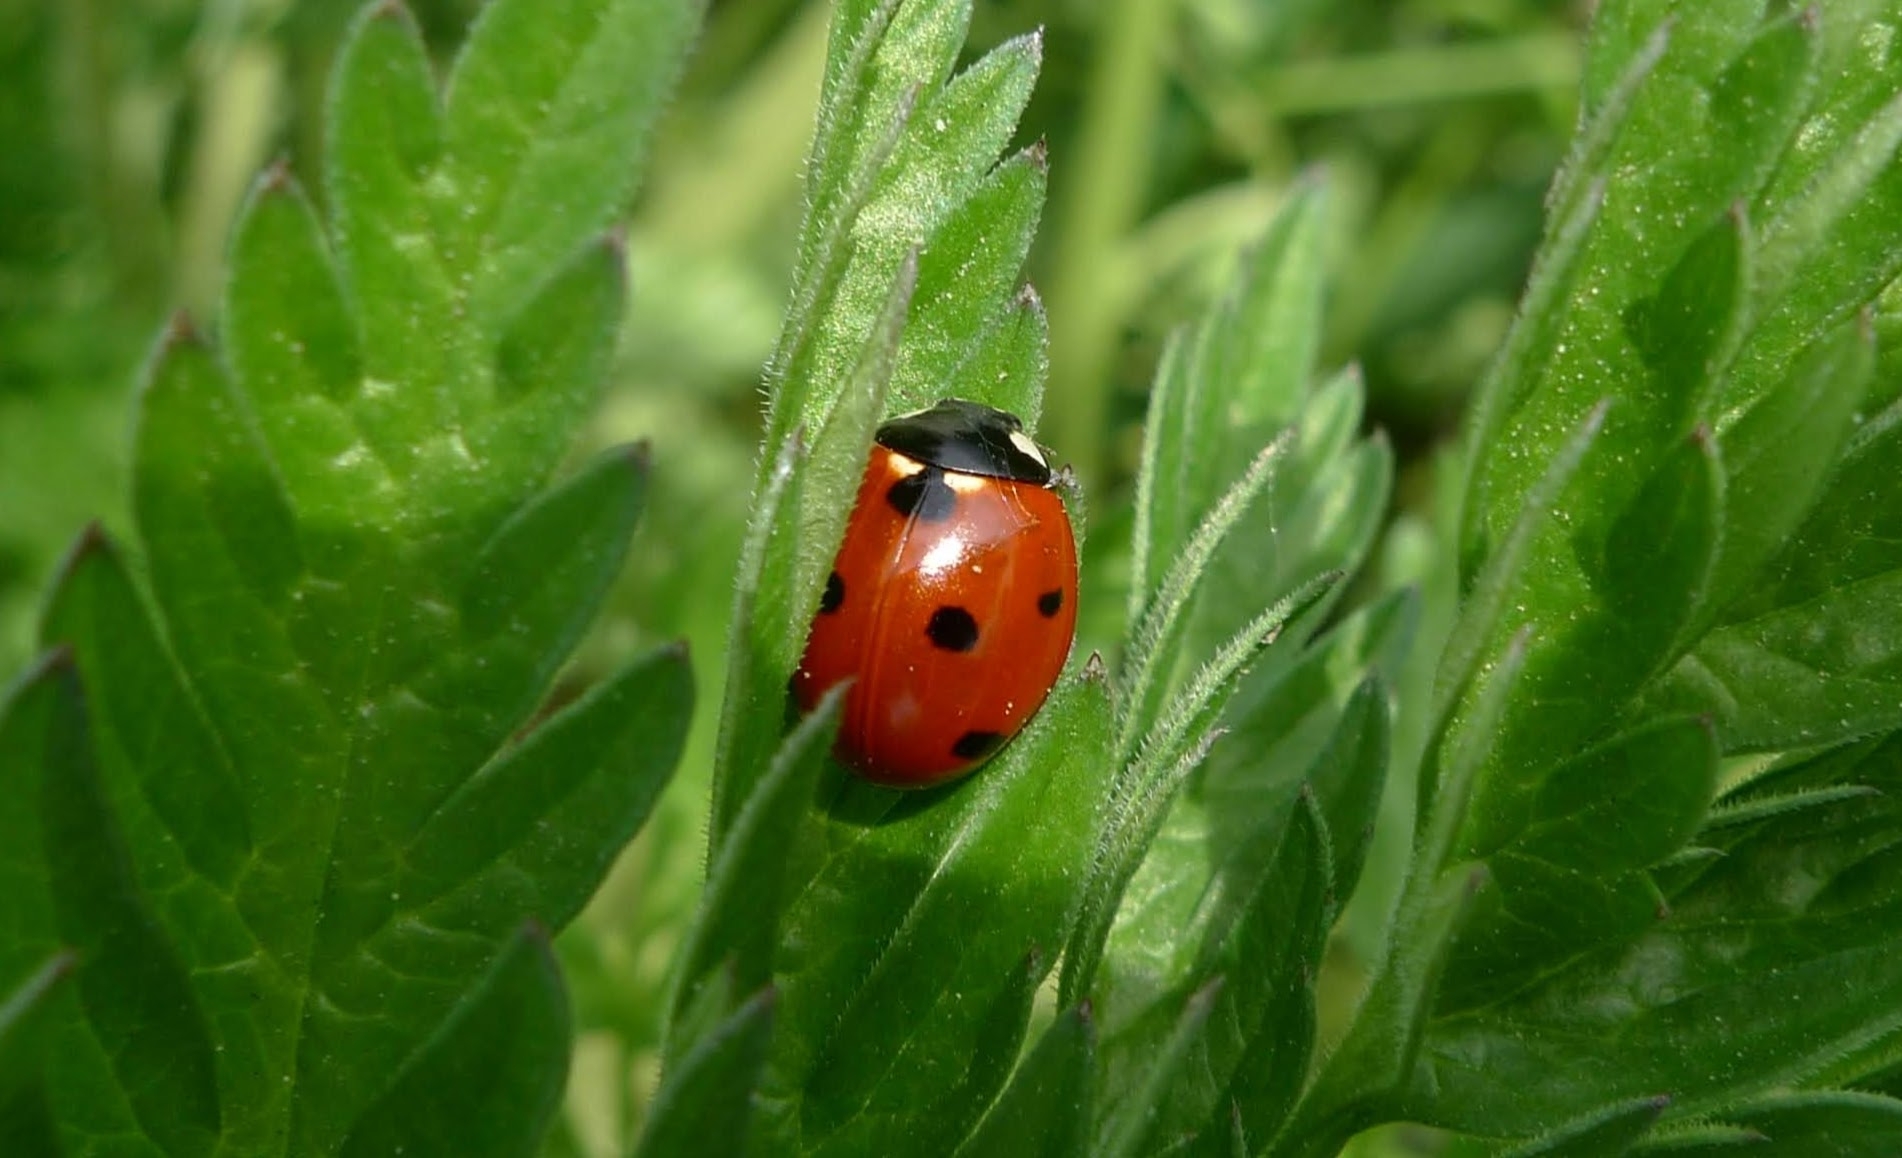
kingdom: Animalia
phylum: Arthropoda
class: Insecta
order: Coleoptera
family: Coccinellidae
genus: Coccinella
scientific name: Coccinella septempunctata
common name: Sevenspotted lady beetle
